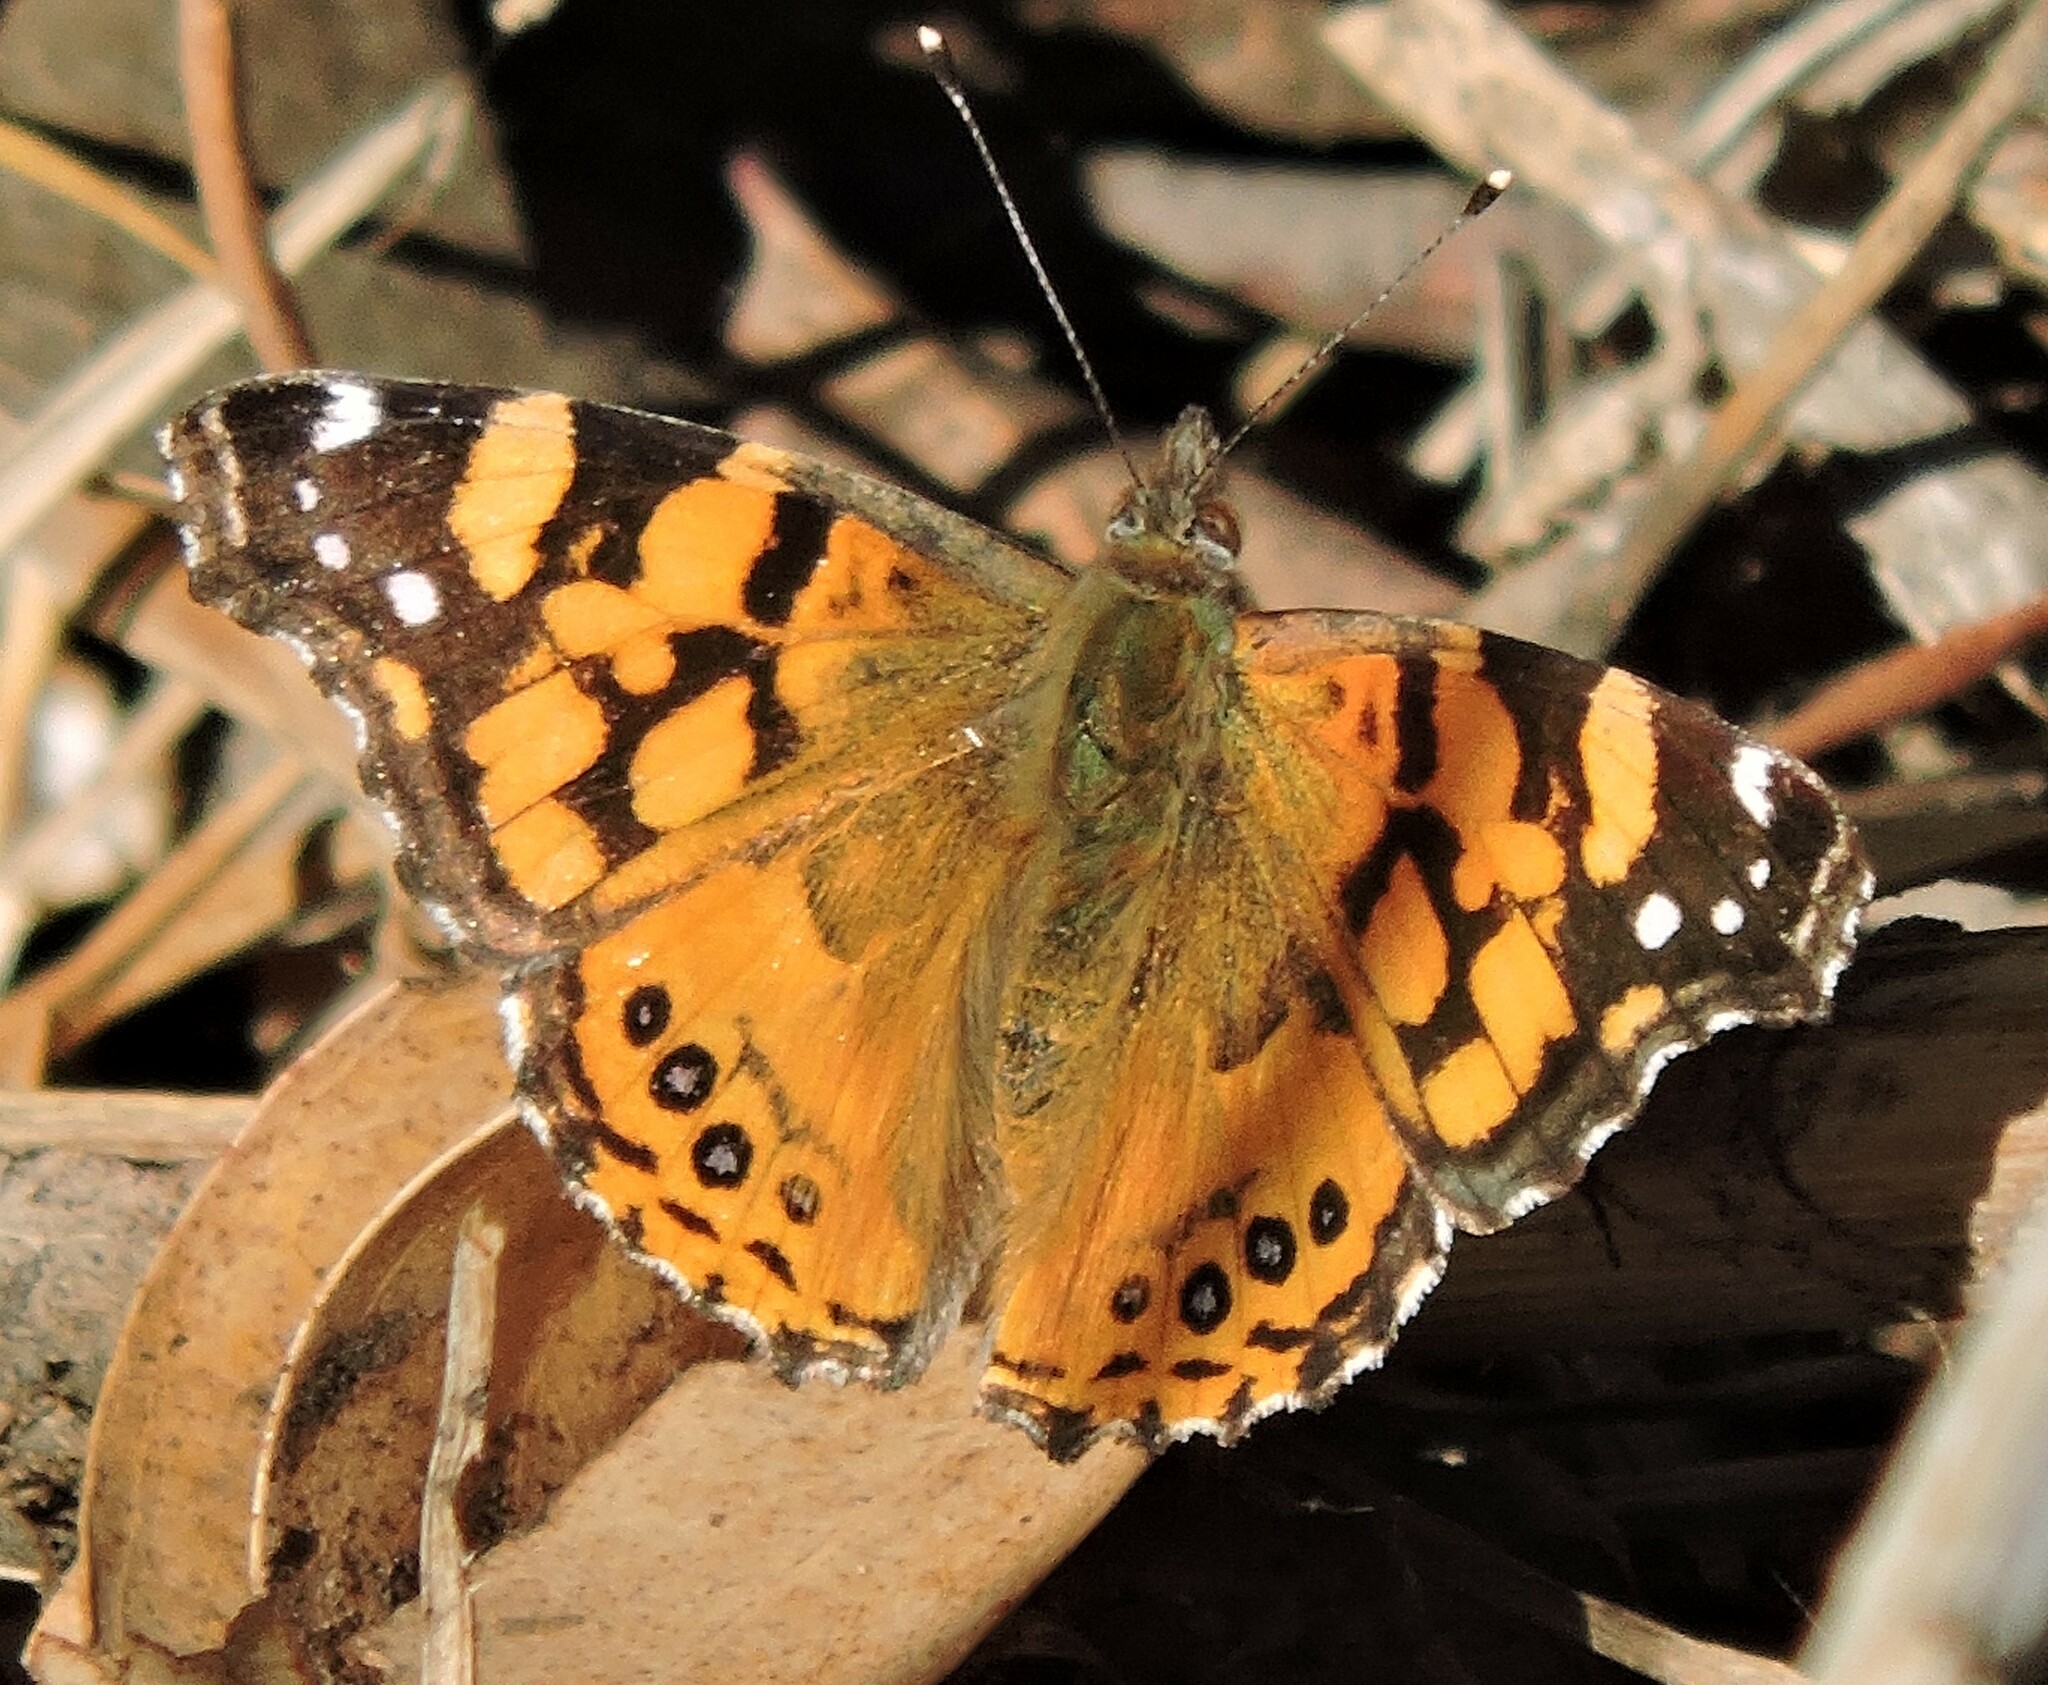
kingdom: Animalia
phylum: Arthropoda
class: Insecta
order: Lepidoptera
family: Nymphalidae
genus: Vanessa
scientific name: Vanessa annabella
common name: West coast lady
